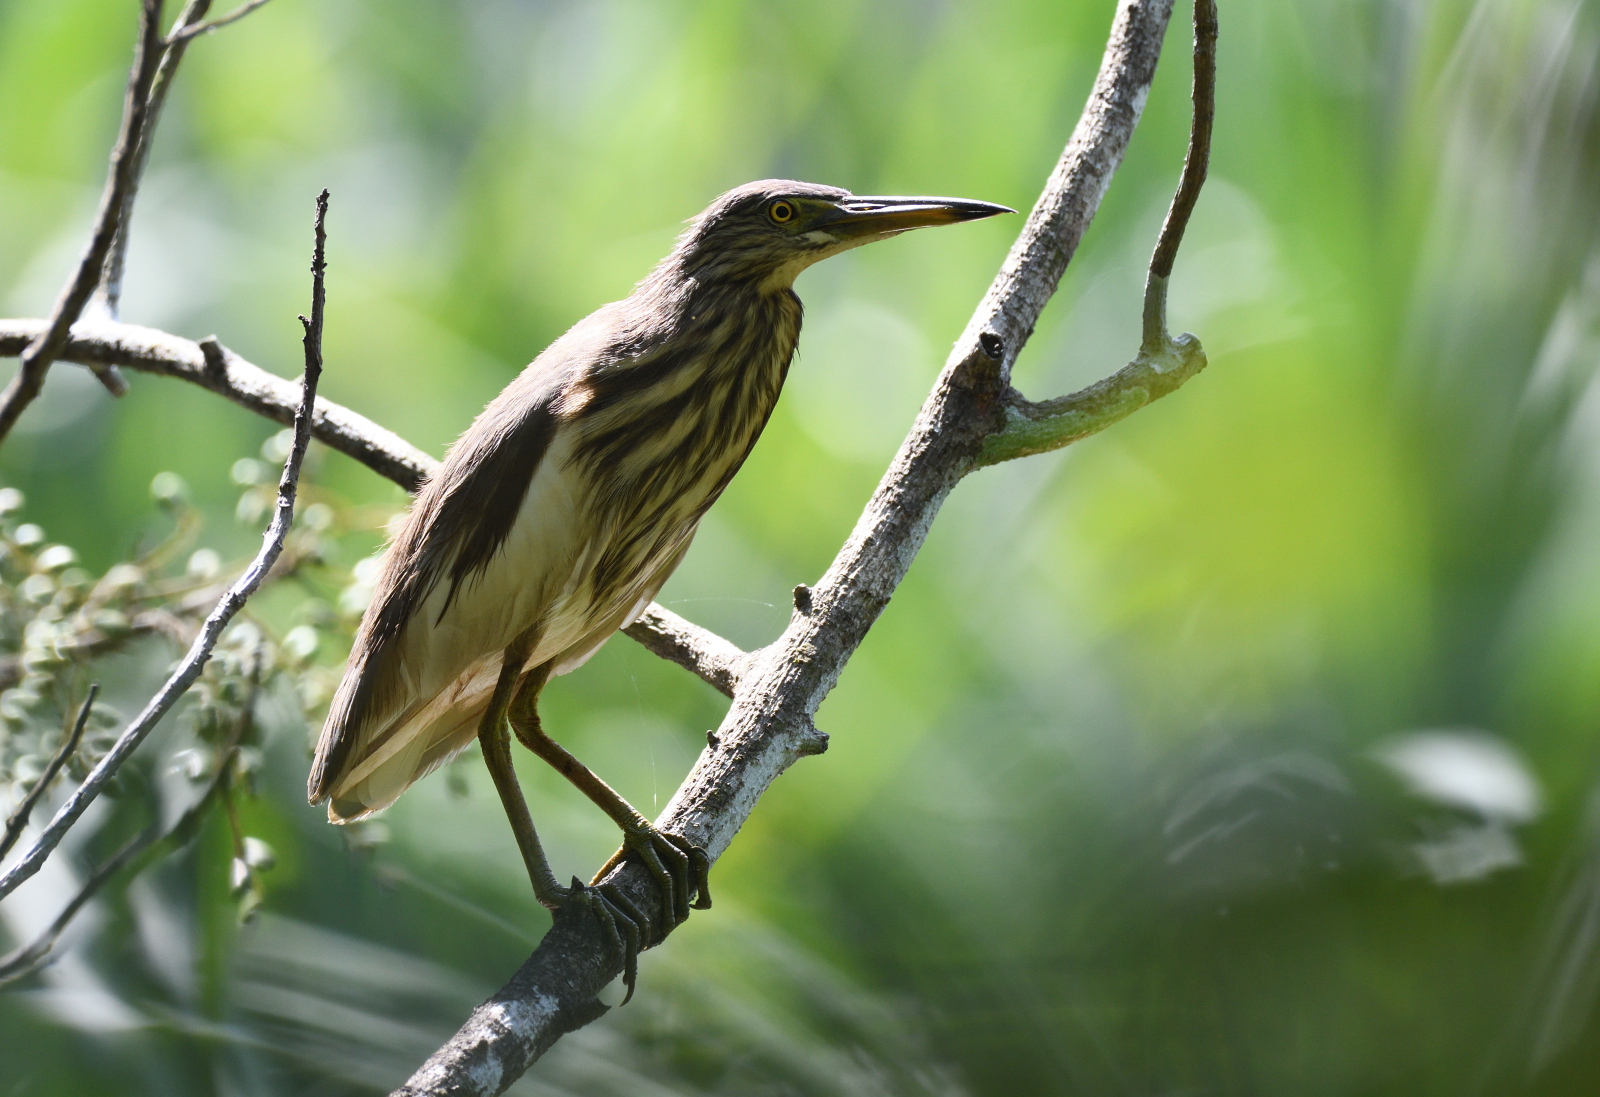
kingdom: Animalia
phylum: Chordata
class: Aves
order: Pelecaniformes
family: Ardeidae
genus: Ardeola
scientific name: Ardeola grayii
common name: Indian pond heron
